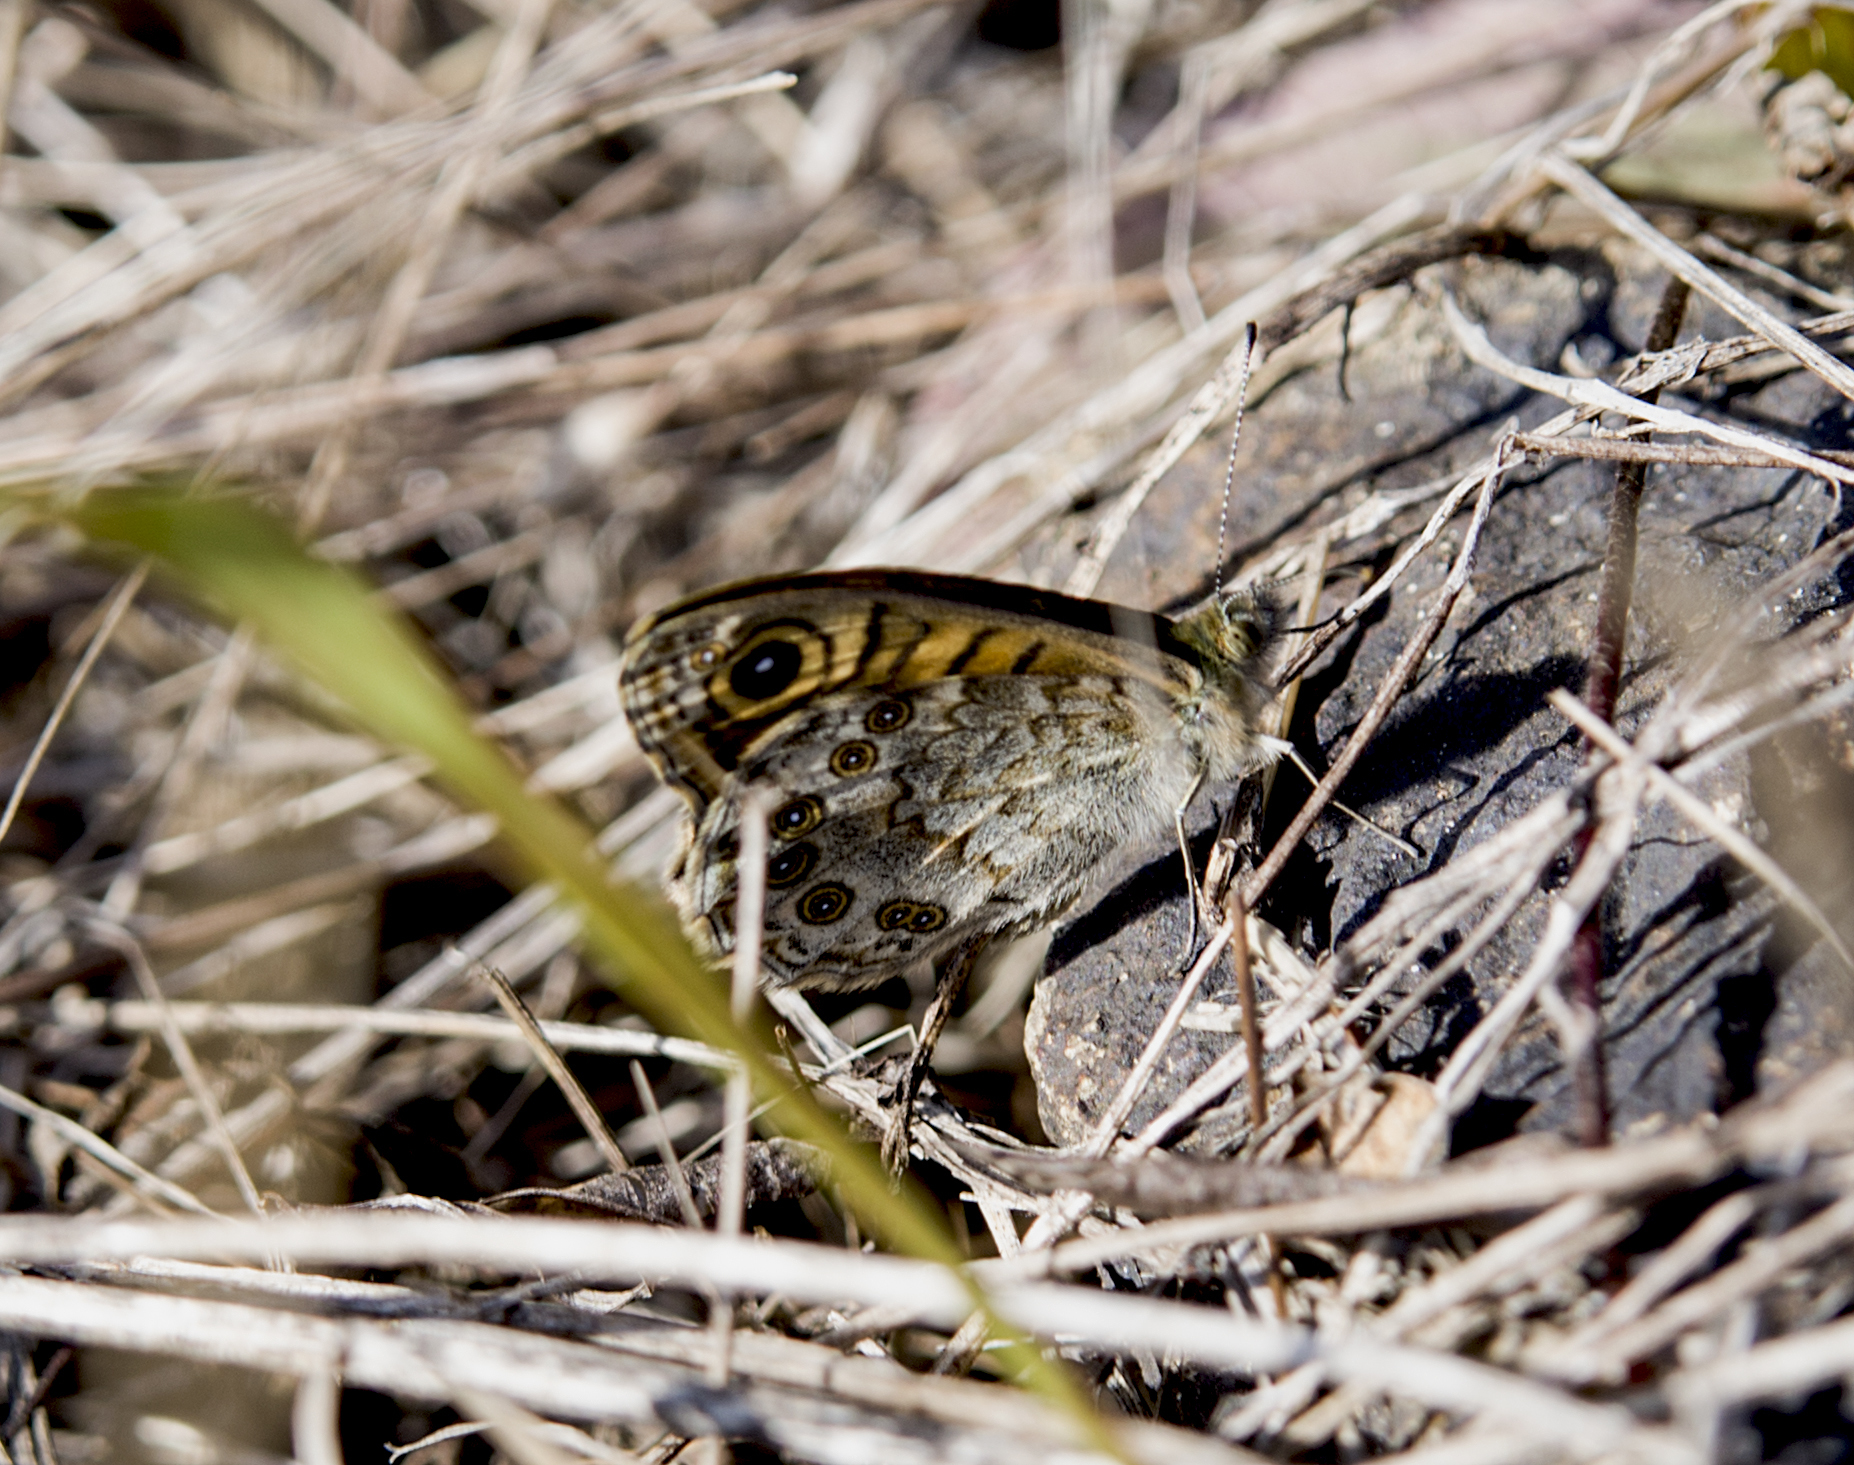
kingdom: Animalia
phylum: Arthropoda
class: Insecta
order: Lepidoptera
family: Nymphalidae
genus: Pararge
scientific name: Pararge Lasiommata megera
